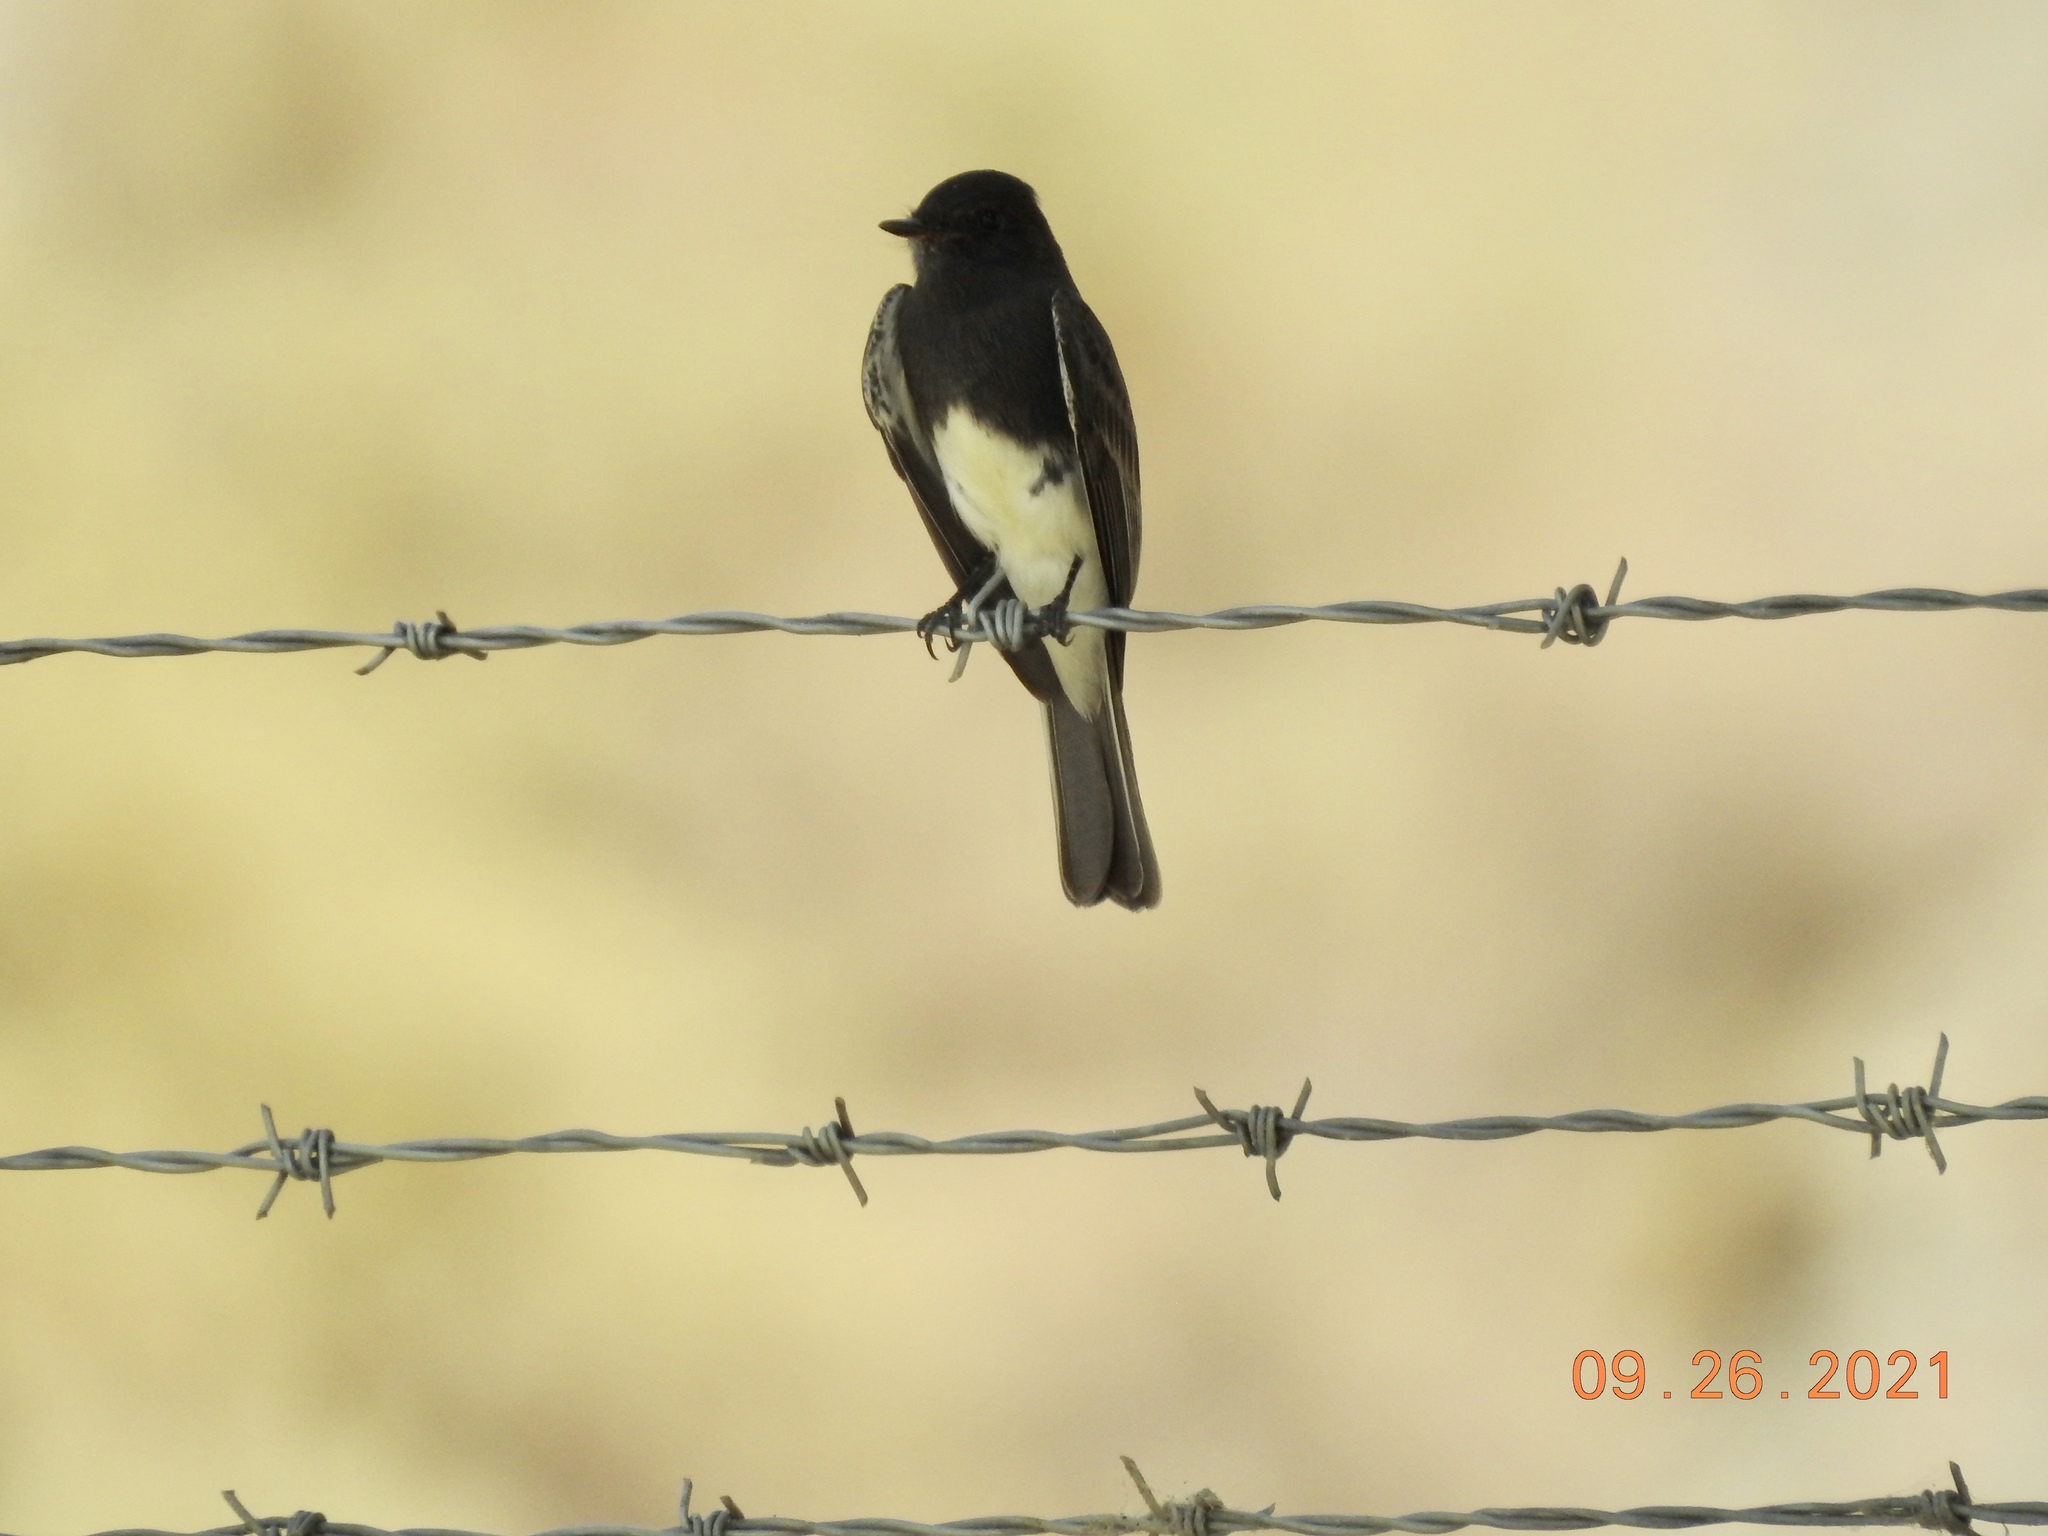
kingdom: Animalia
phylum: Chordata
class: Aves
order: Passeriformes
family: Tyrannidae
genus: Sayornis
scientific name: Sayornis nigricans
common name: Black phoebe
